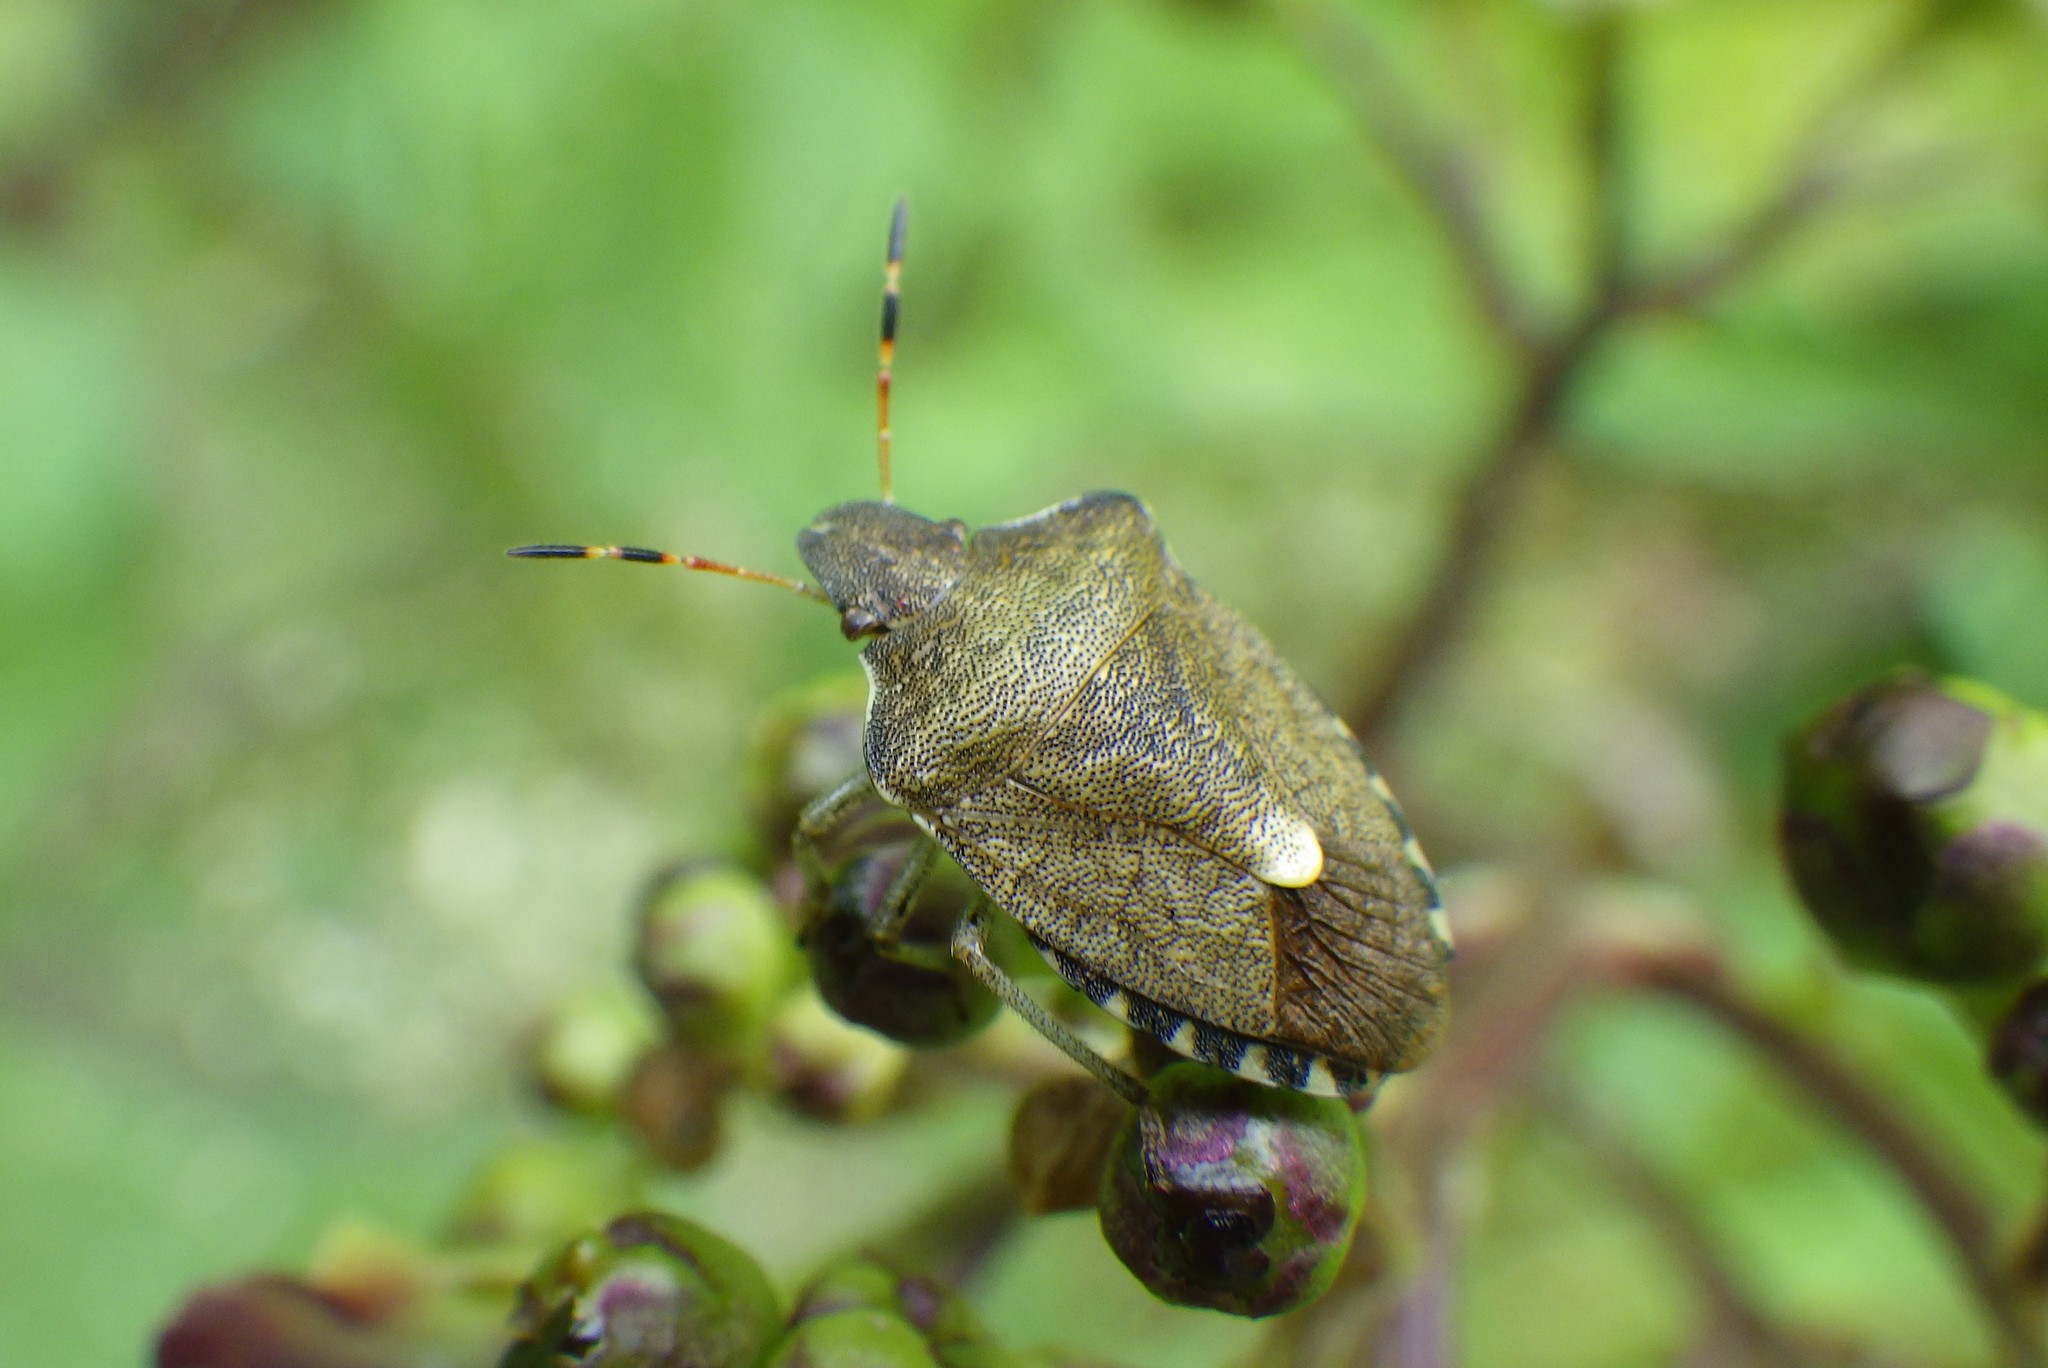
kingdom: Animalia
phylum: Arthropoda
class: Insecta
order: Hemiptera
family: Pentatomidae
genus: Holcostethus
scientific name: Holcostethus strictus
